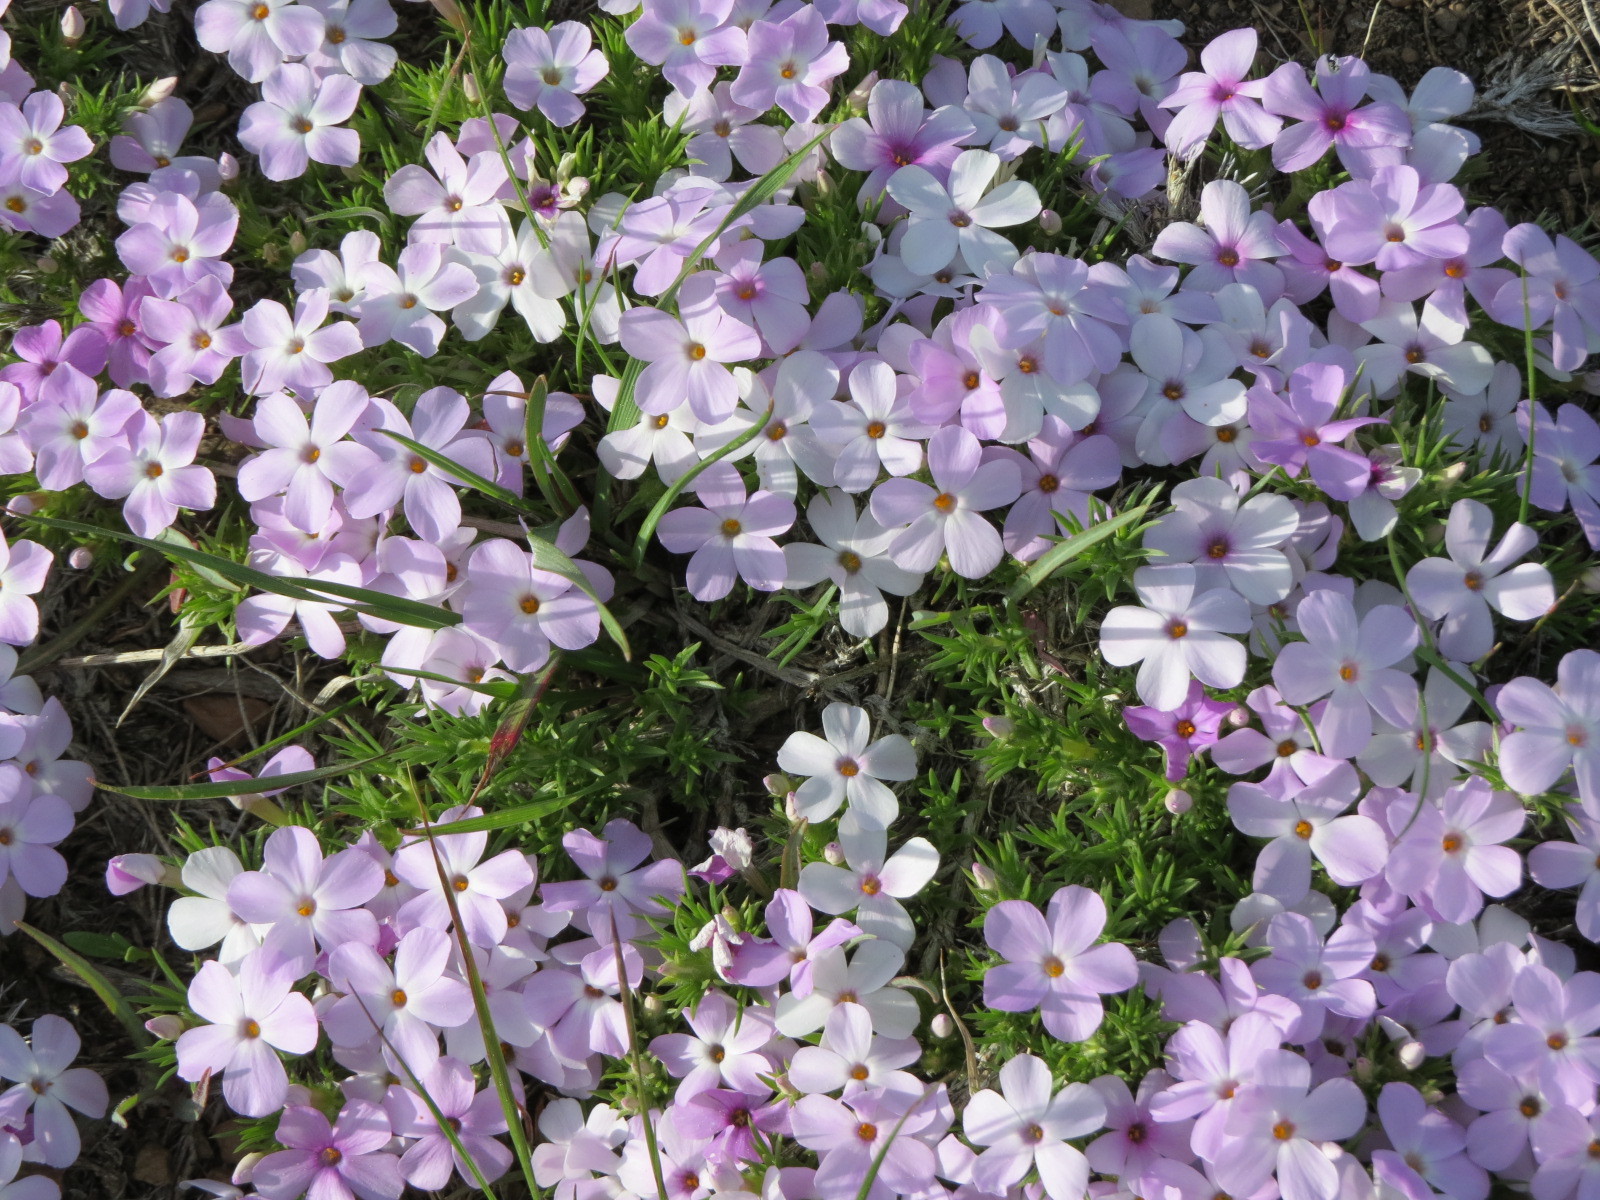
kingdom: Plantae
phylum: Tracheophyta
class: Magnoliopsida
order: Ericales
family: Polemoniaceae
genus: Phlox
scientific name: Phlox diffusa
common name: Mat phlox
